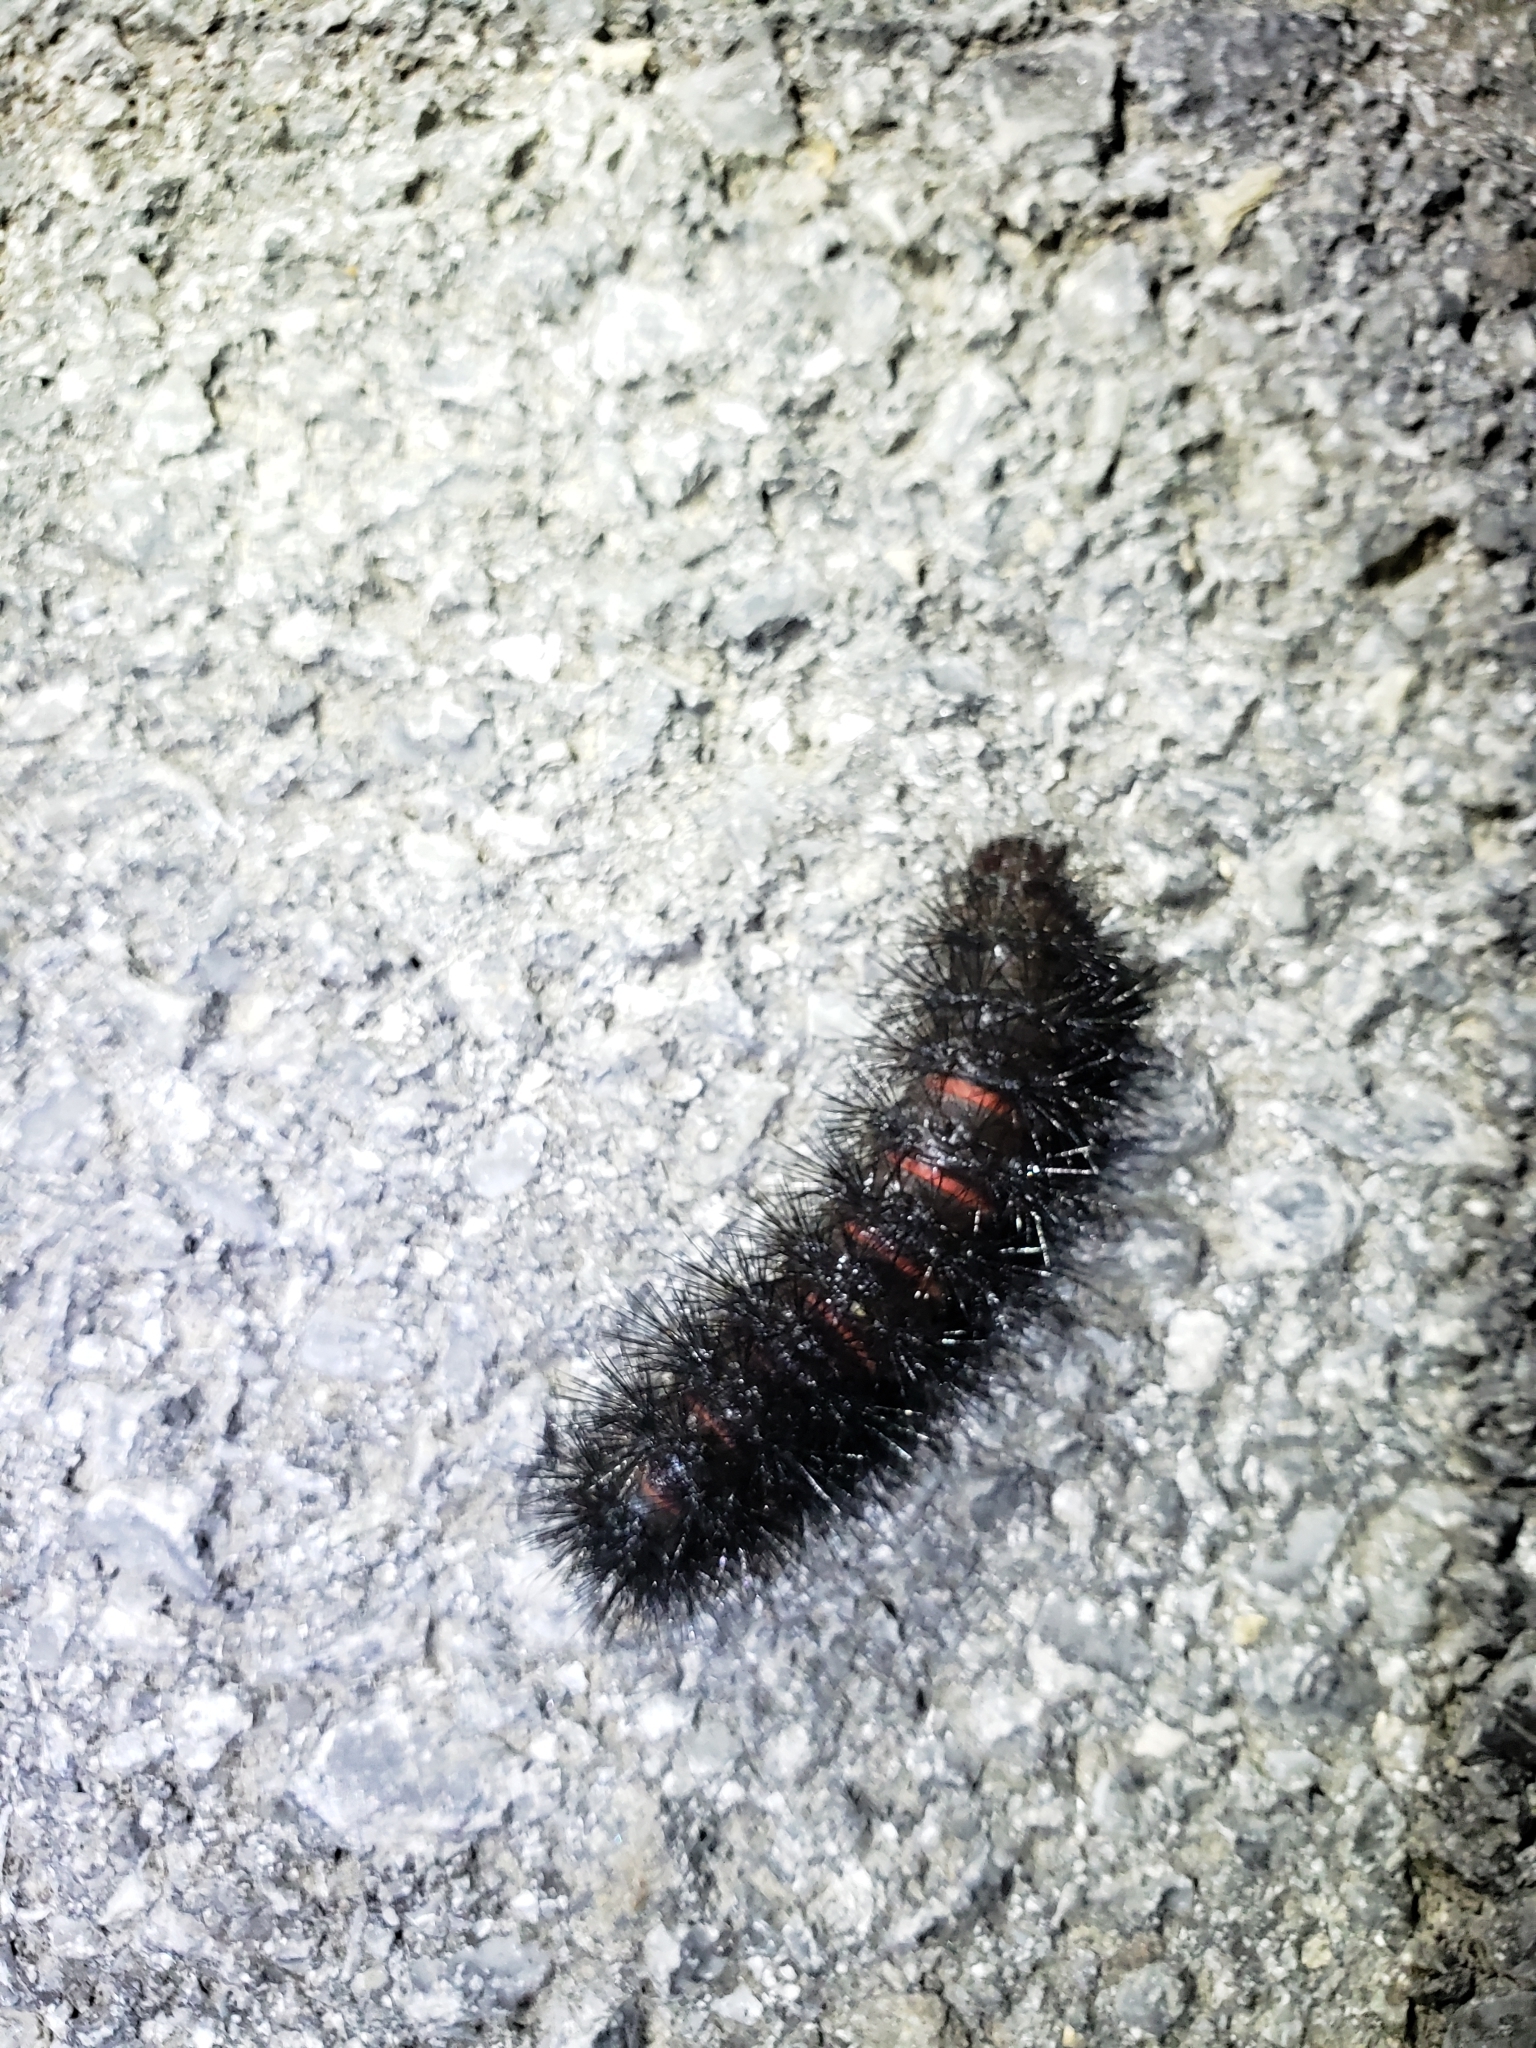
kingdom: Animalia
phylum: Arthropoda
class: Insecta
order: Lepidoptera
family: Erebidae
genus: Hypercompe
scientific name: Hypercompe scribonia
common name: Giant leopard moth
